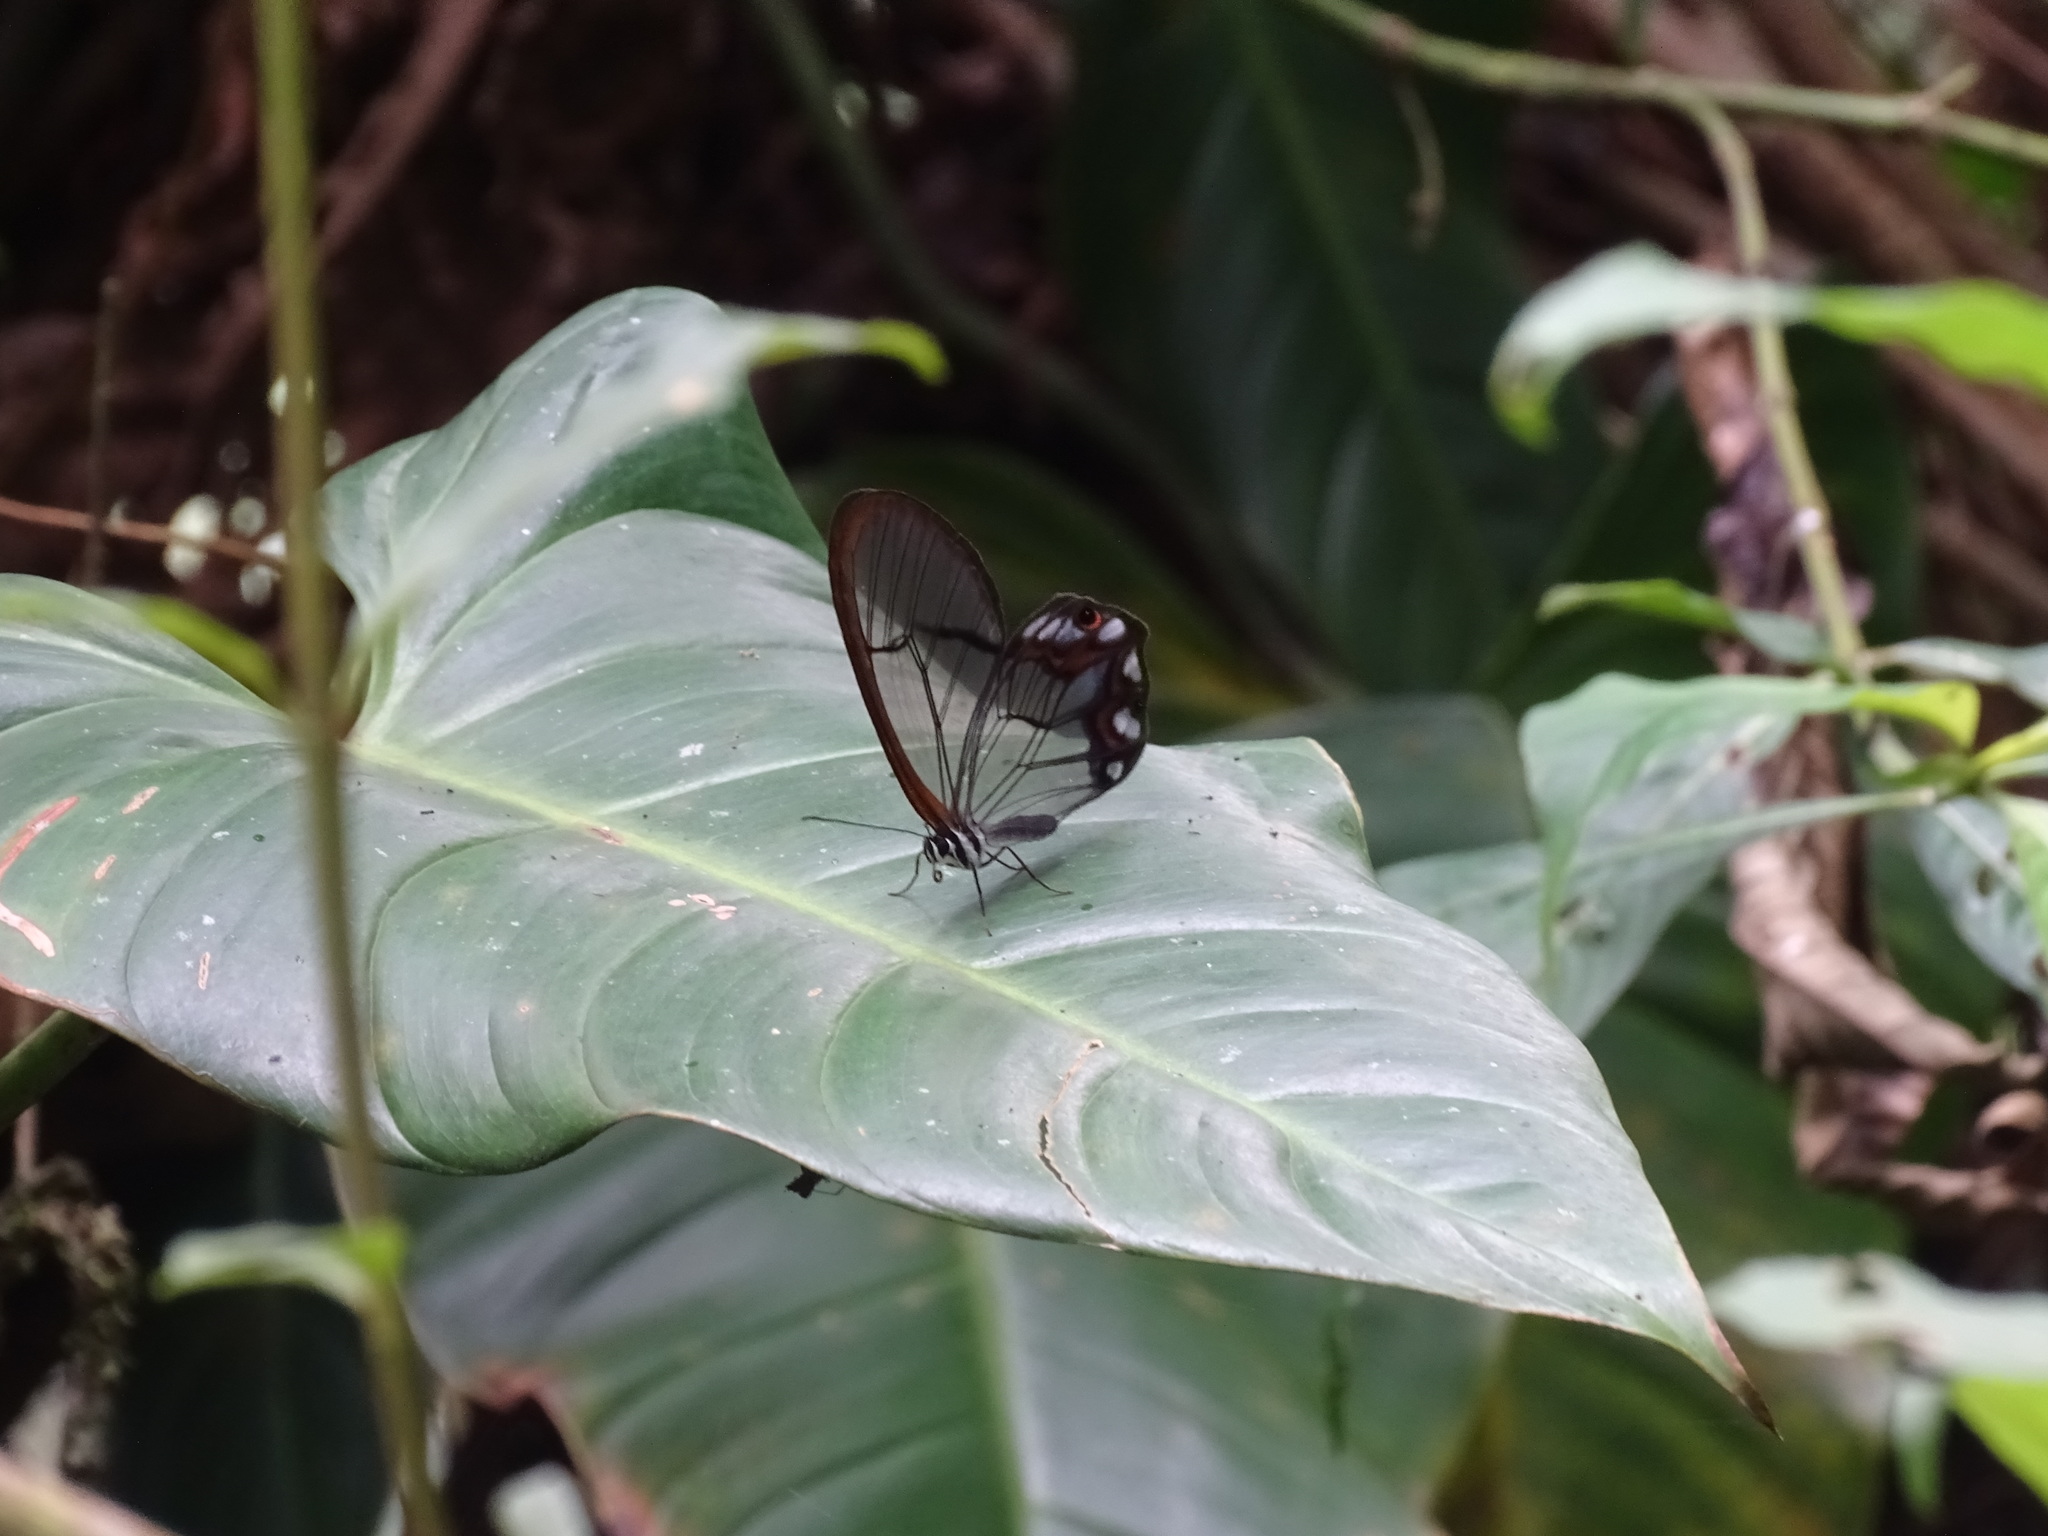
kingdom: Animalia
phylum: Arthropoda
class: Insecta
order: Lepidoptera
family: Nymphalidae
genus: Pseudohaetera
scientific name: Pseudohaetera hypaesia
